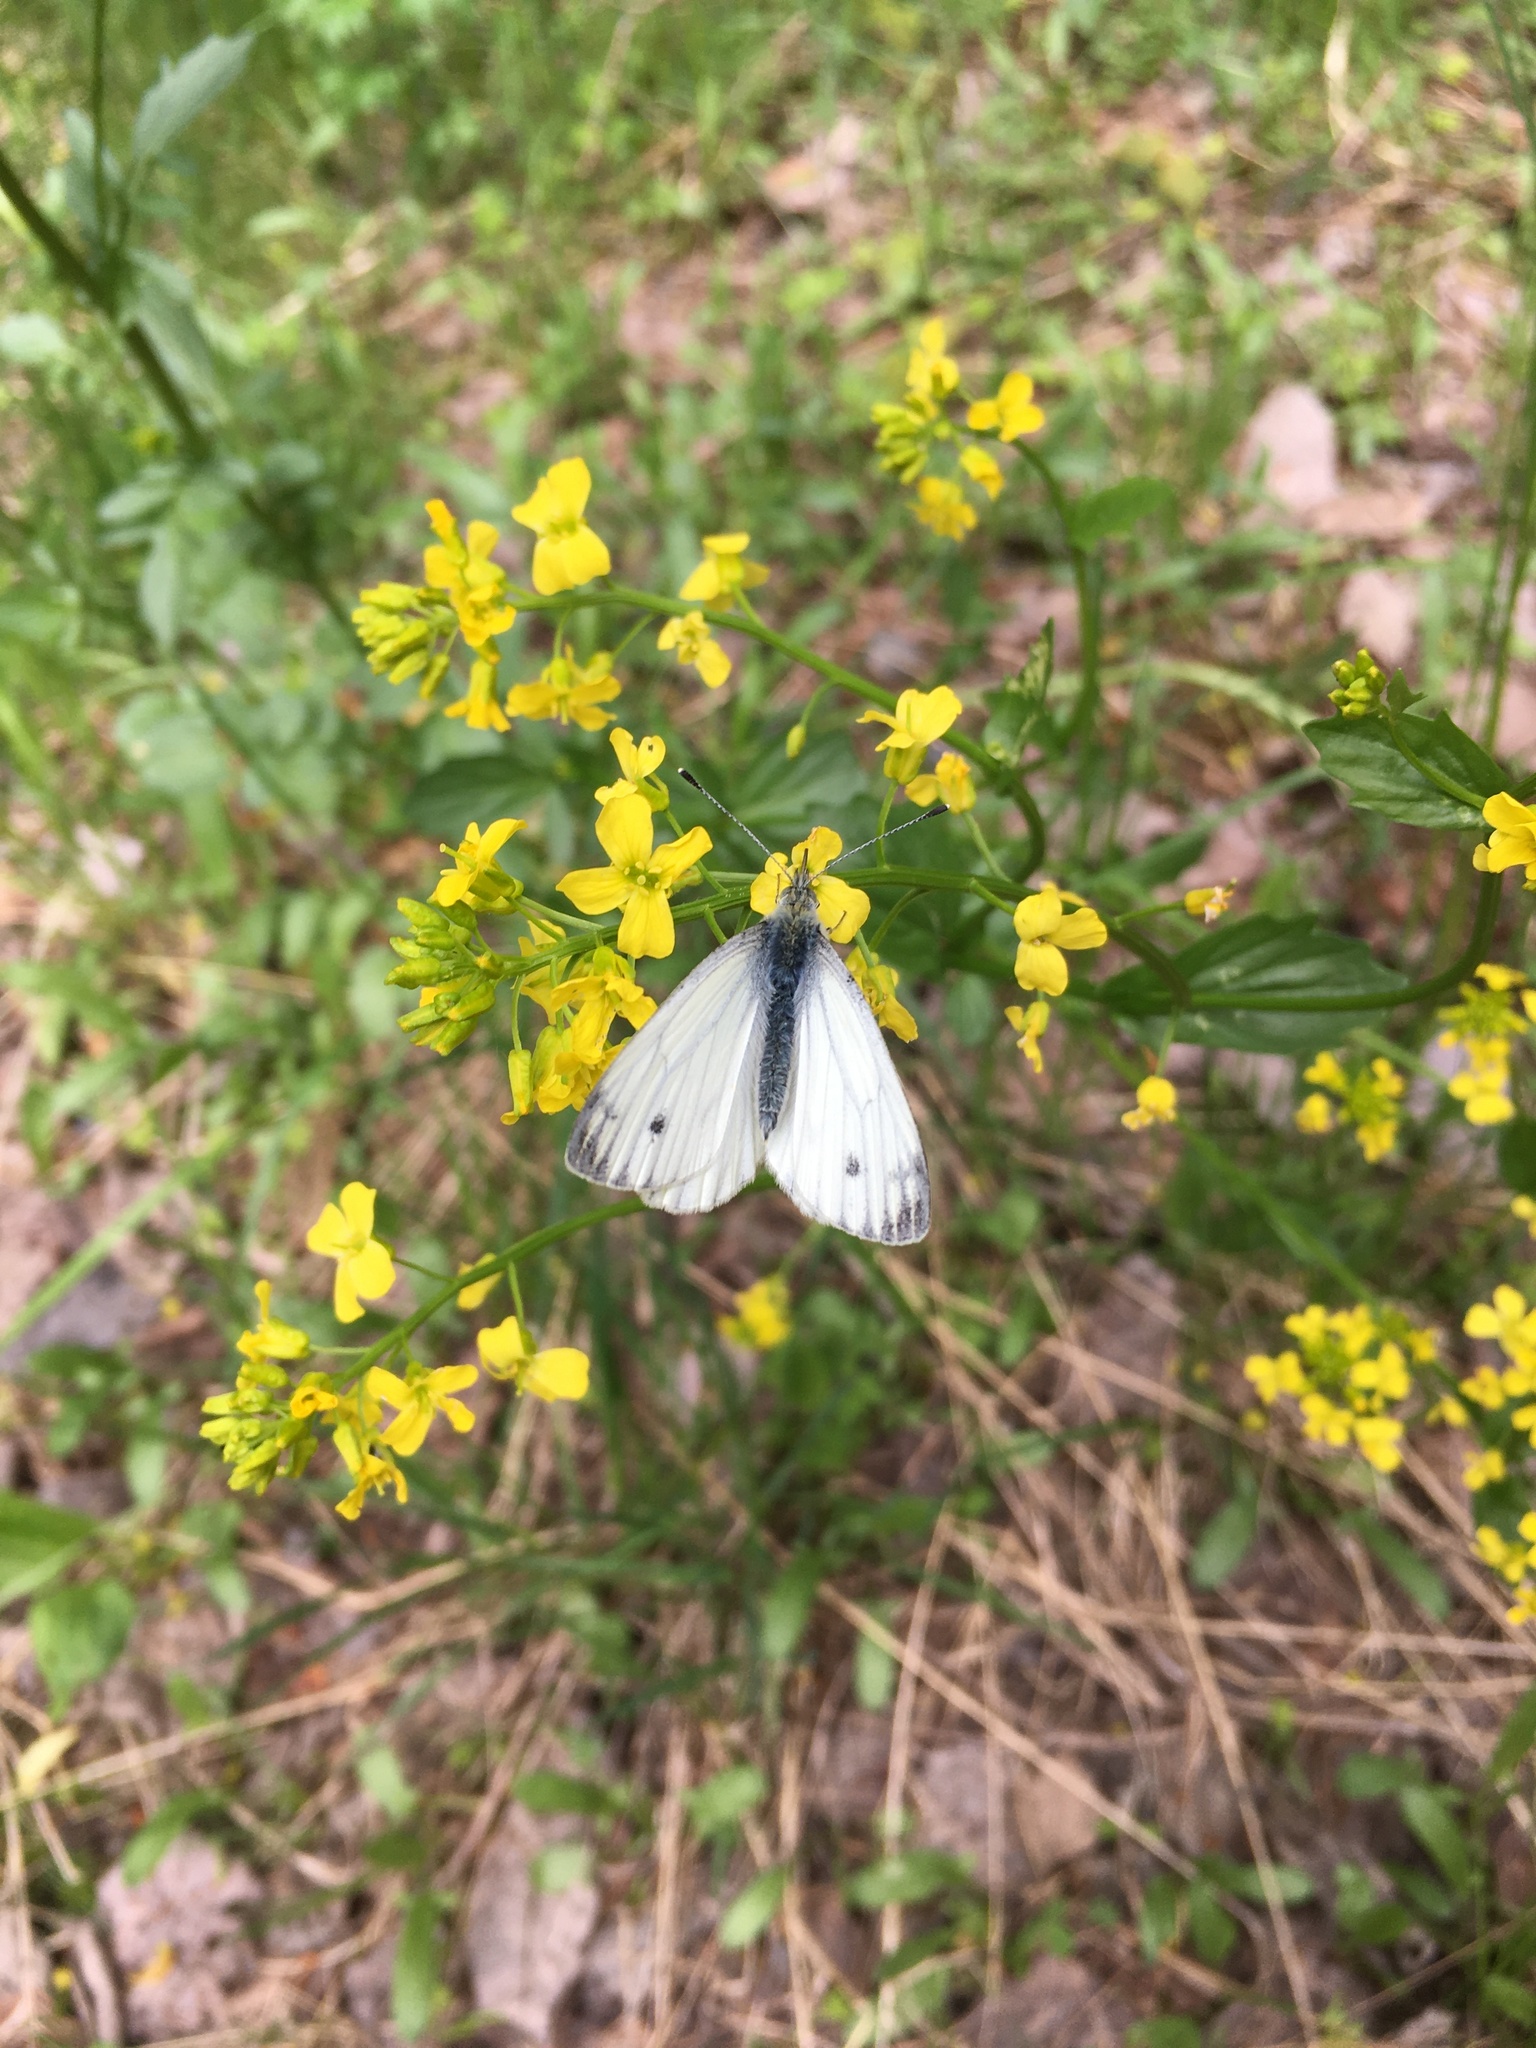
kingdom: Animalia
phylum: Arthropoda
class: Insecta
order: Lepidoptera
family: Pieridae
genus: Pieris
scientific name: Pieris napi
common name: Green-veined white
